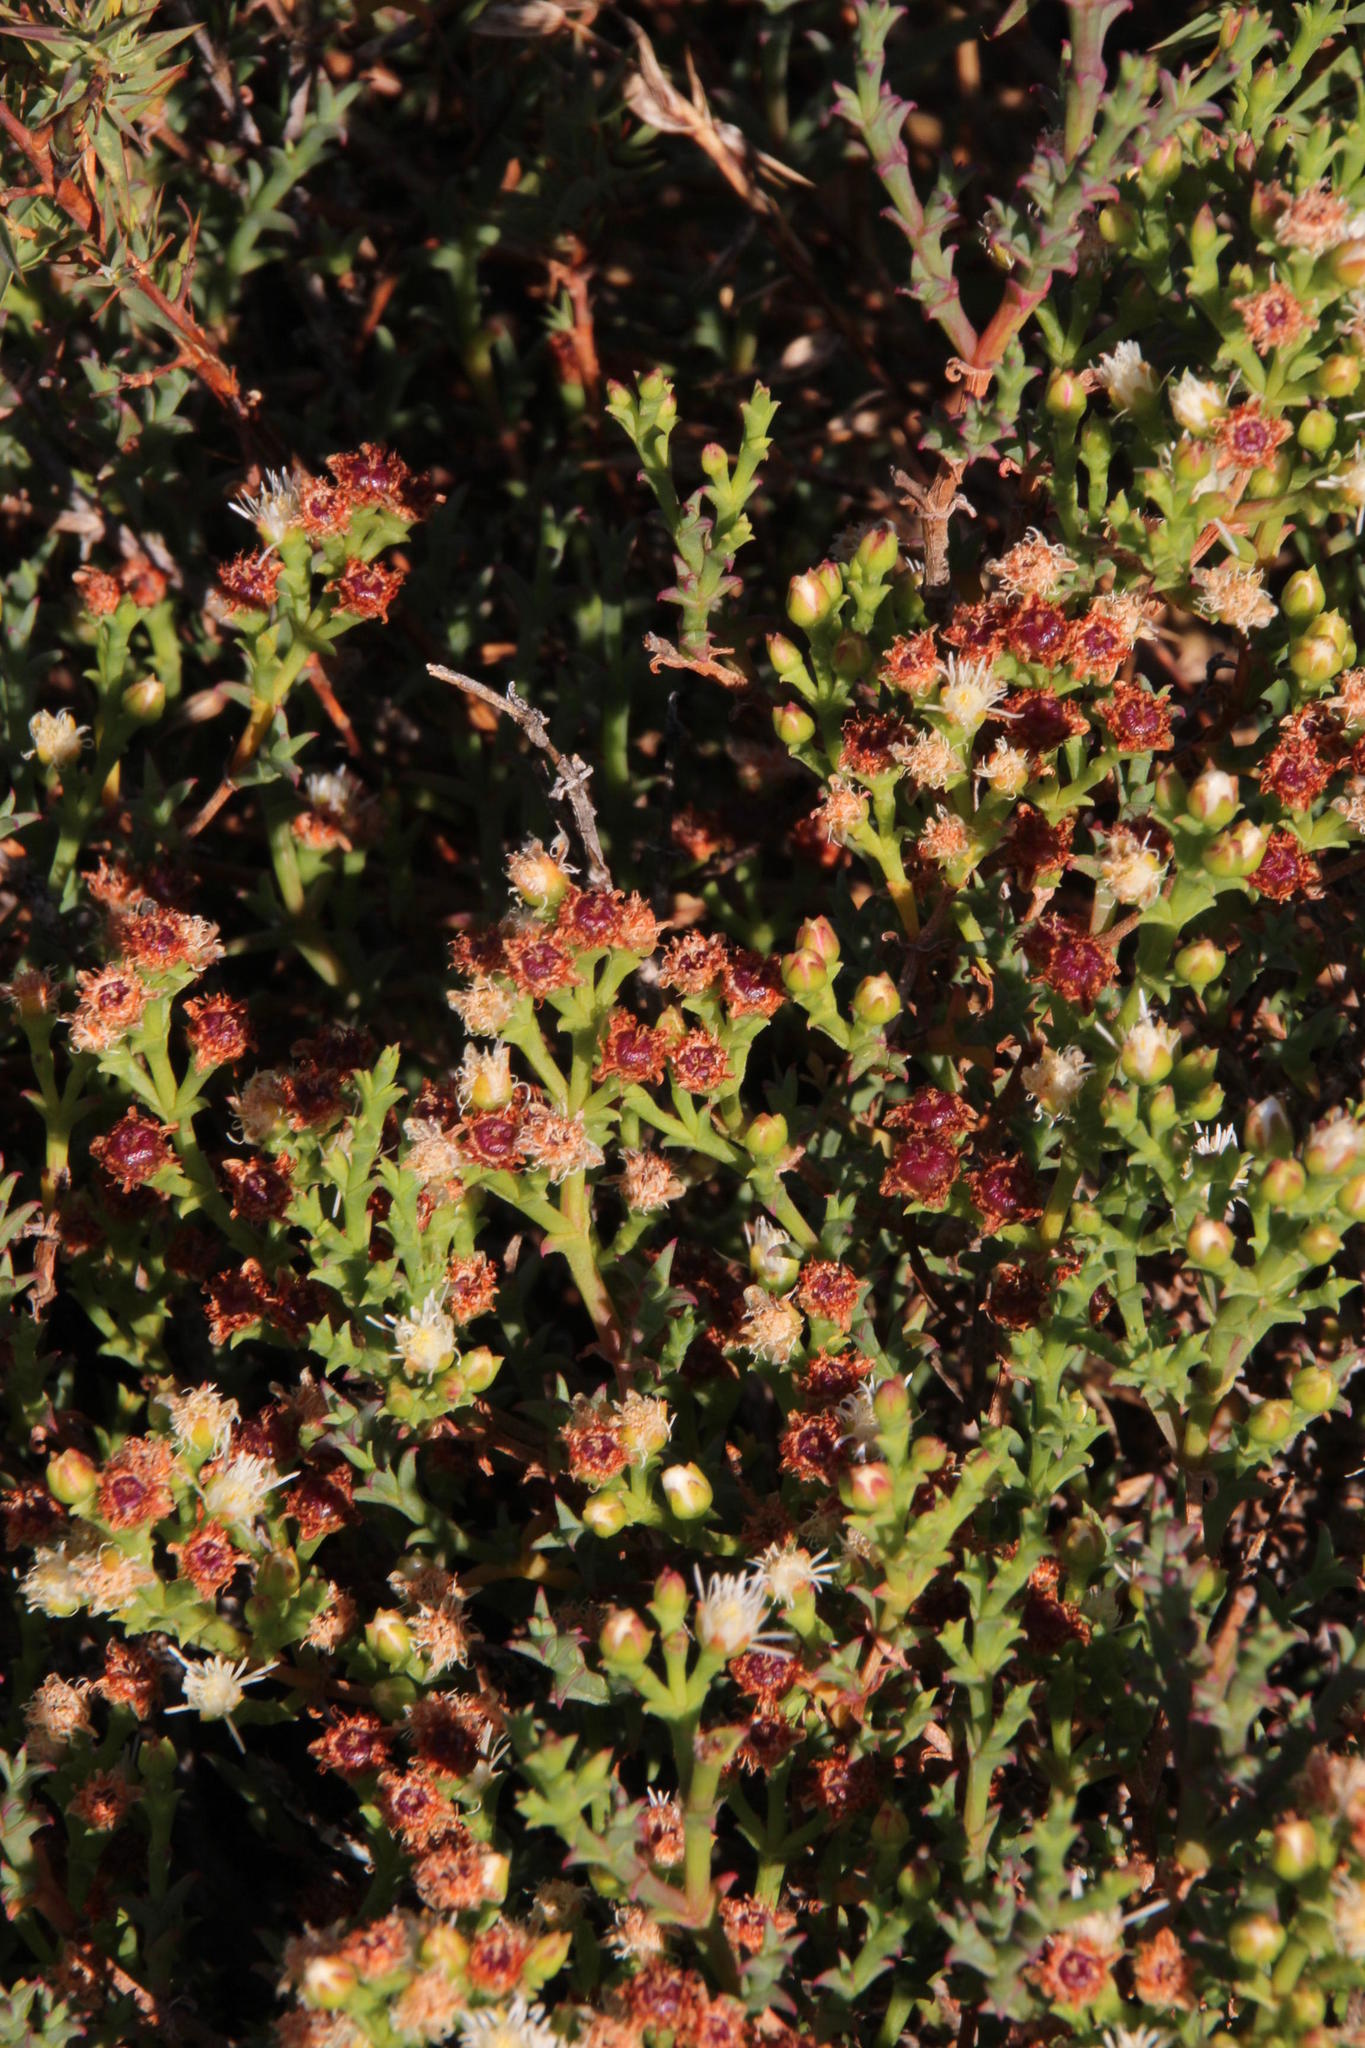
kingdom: Plantae
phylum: Tracheophyta
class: Magnoliopsida
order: Caryophyllales
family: Aizoaceae
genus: Ruschia
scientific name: Ruschia tenella
